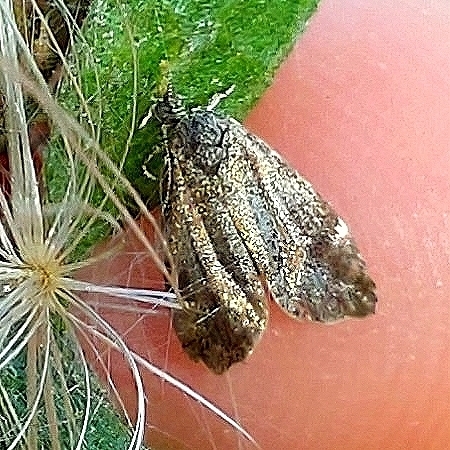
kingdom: Animalia
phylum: Arthropoda
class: Insecta
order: Lepidoptera
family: Choreutidae
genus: Anthophila
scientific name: Anthophila fabriciana
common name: Nettle-tap
